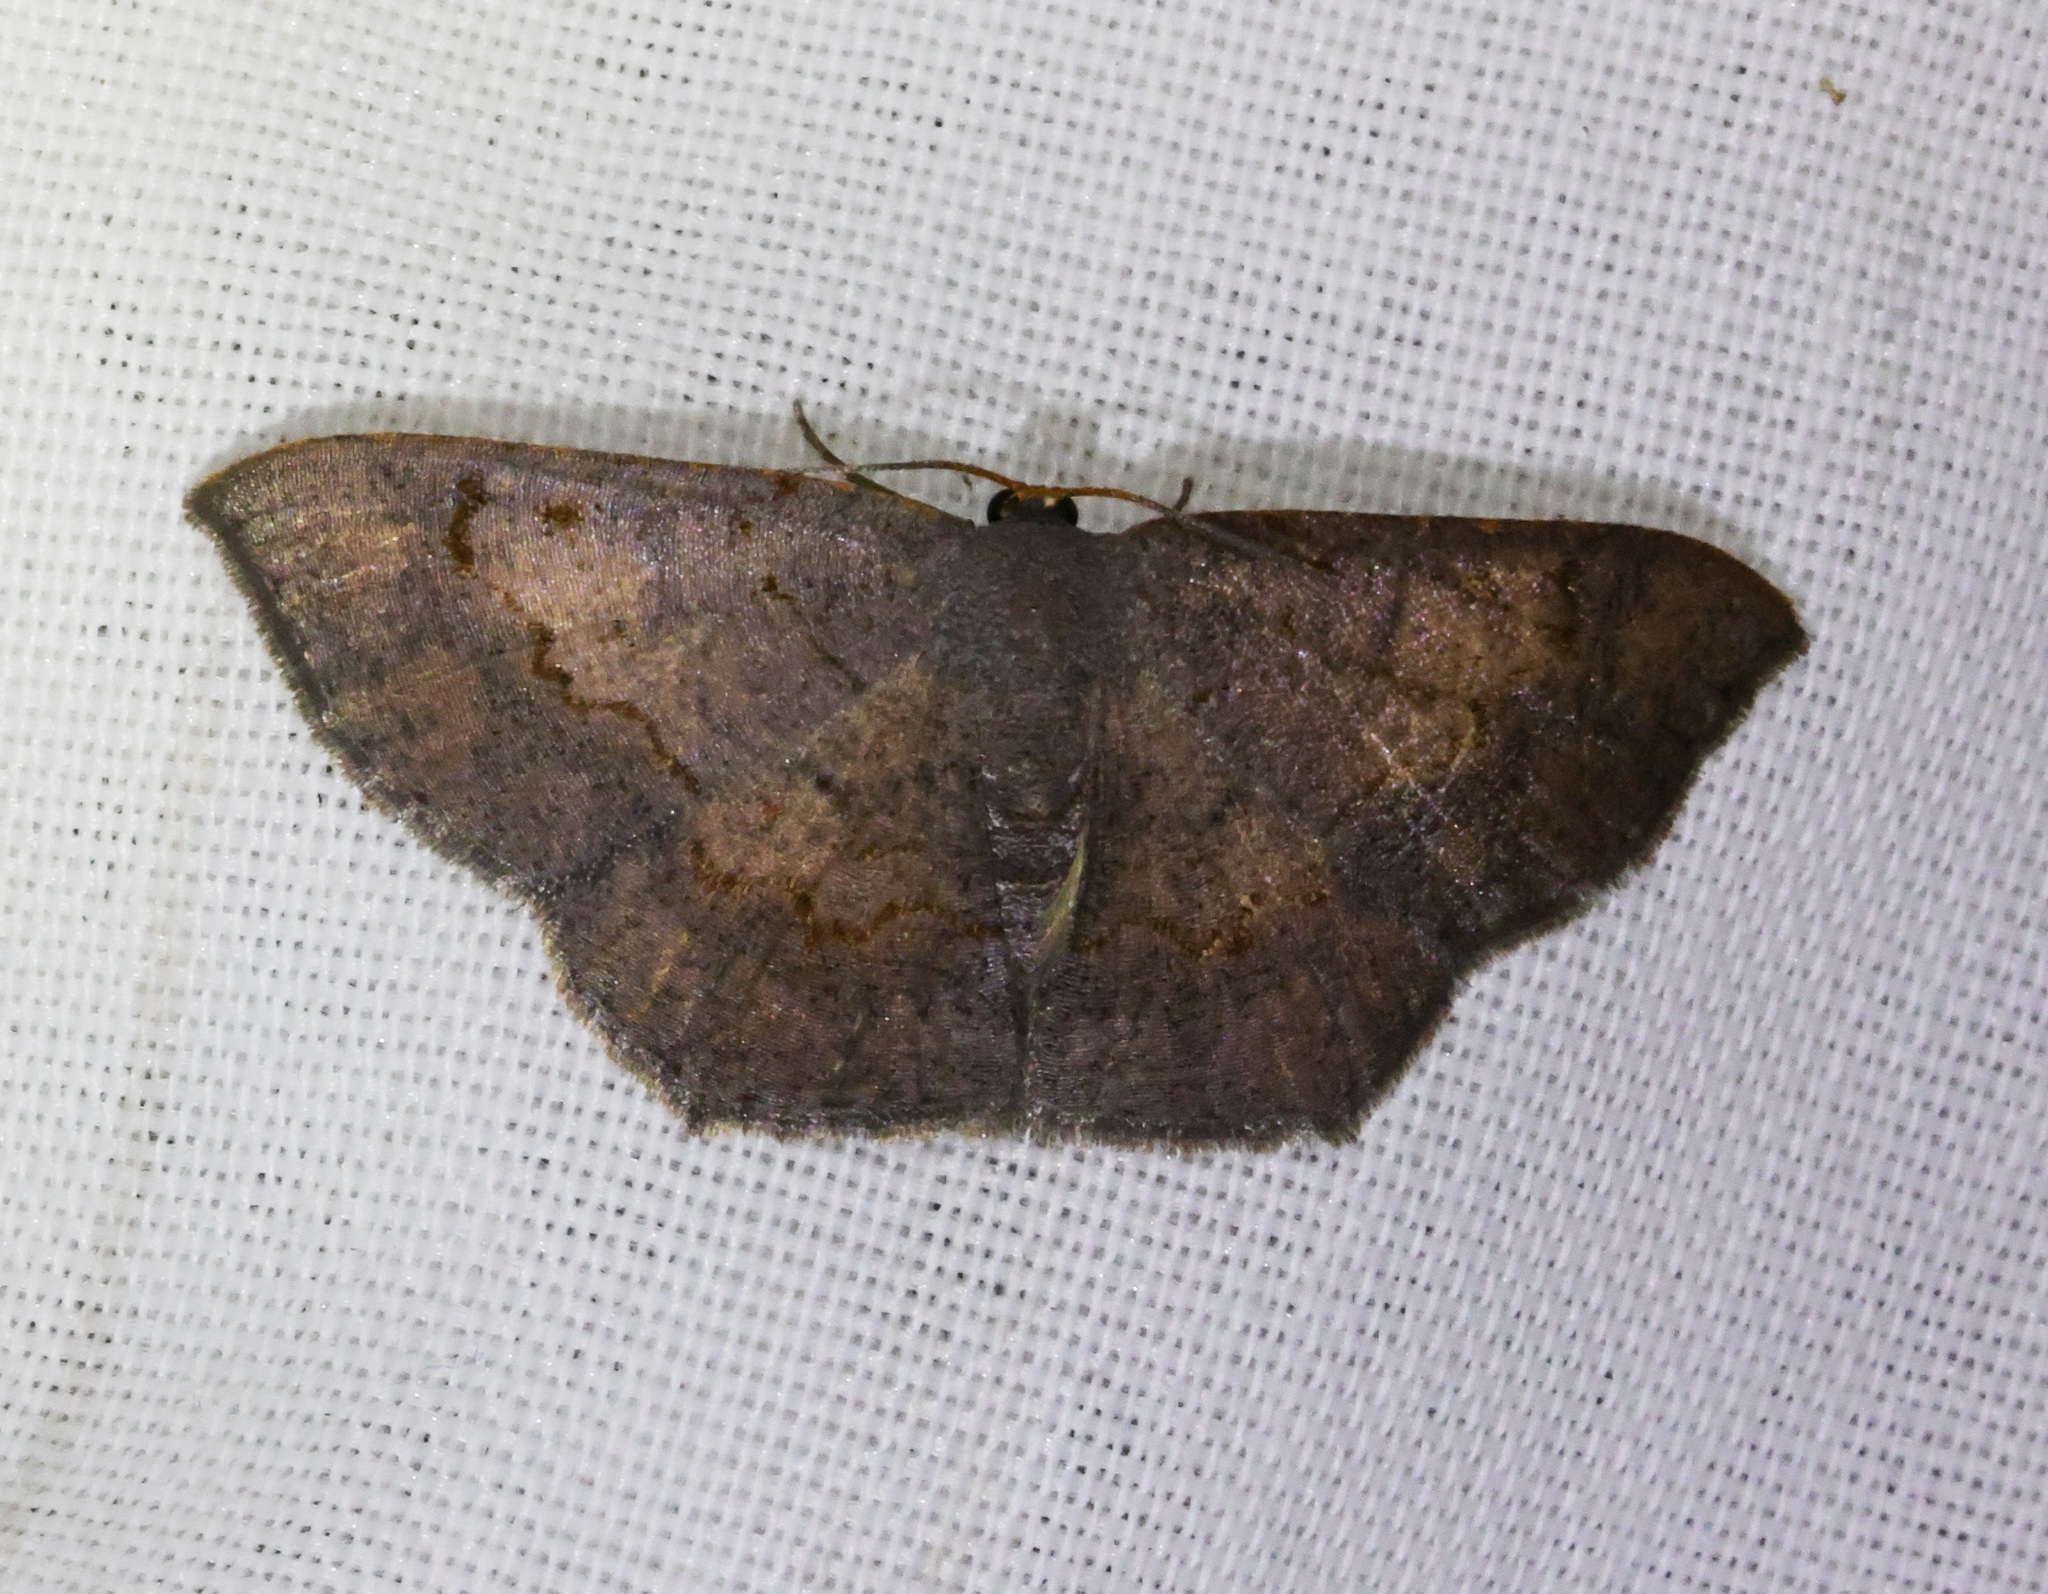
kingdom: Animalia
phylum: Arthropoda
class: Insecta
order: Lepidoptera
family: Geometridae
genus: Serratophyga
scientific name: Serratophyga xanthospilaria
